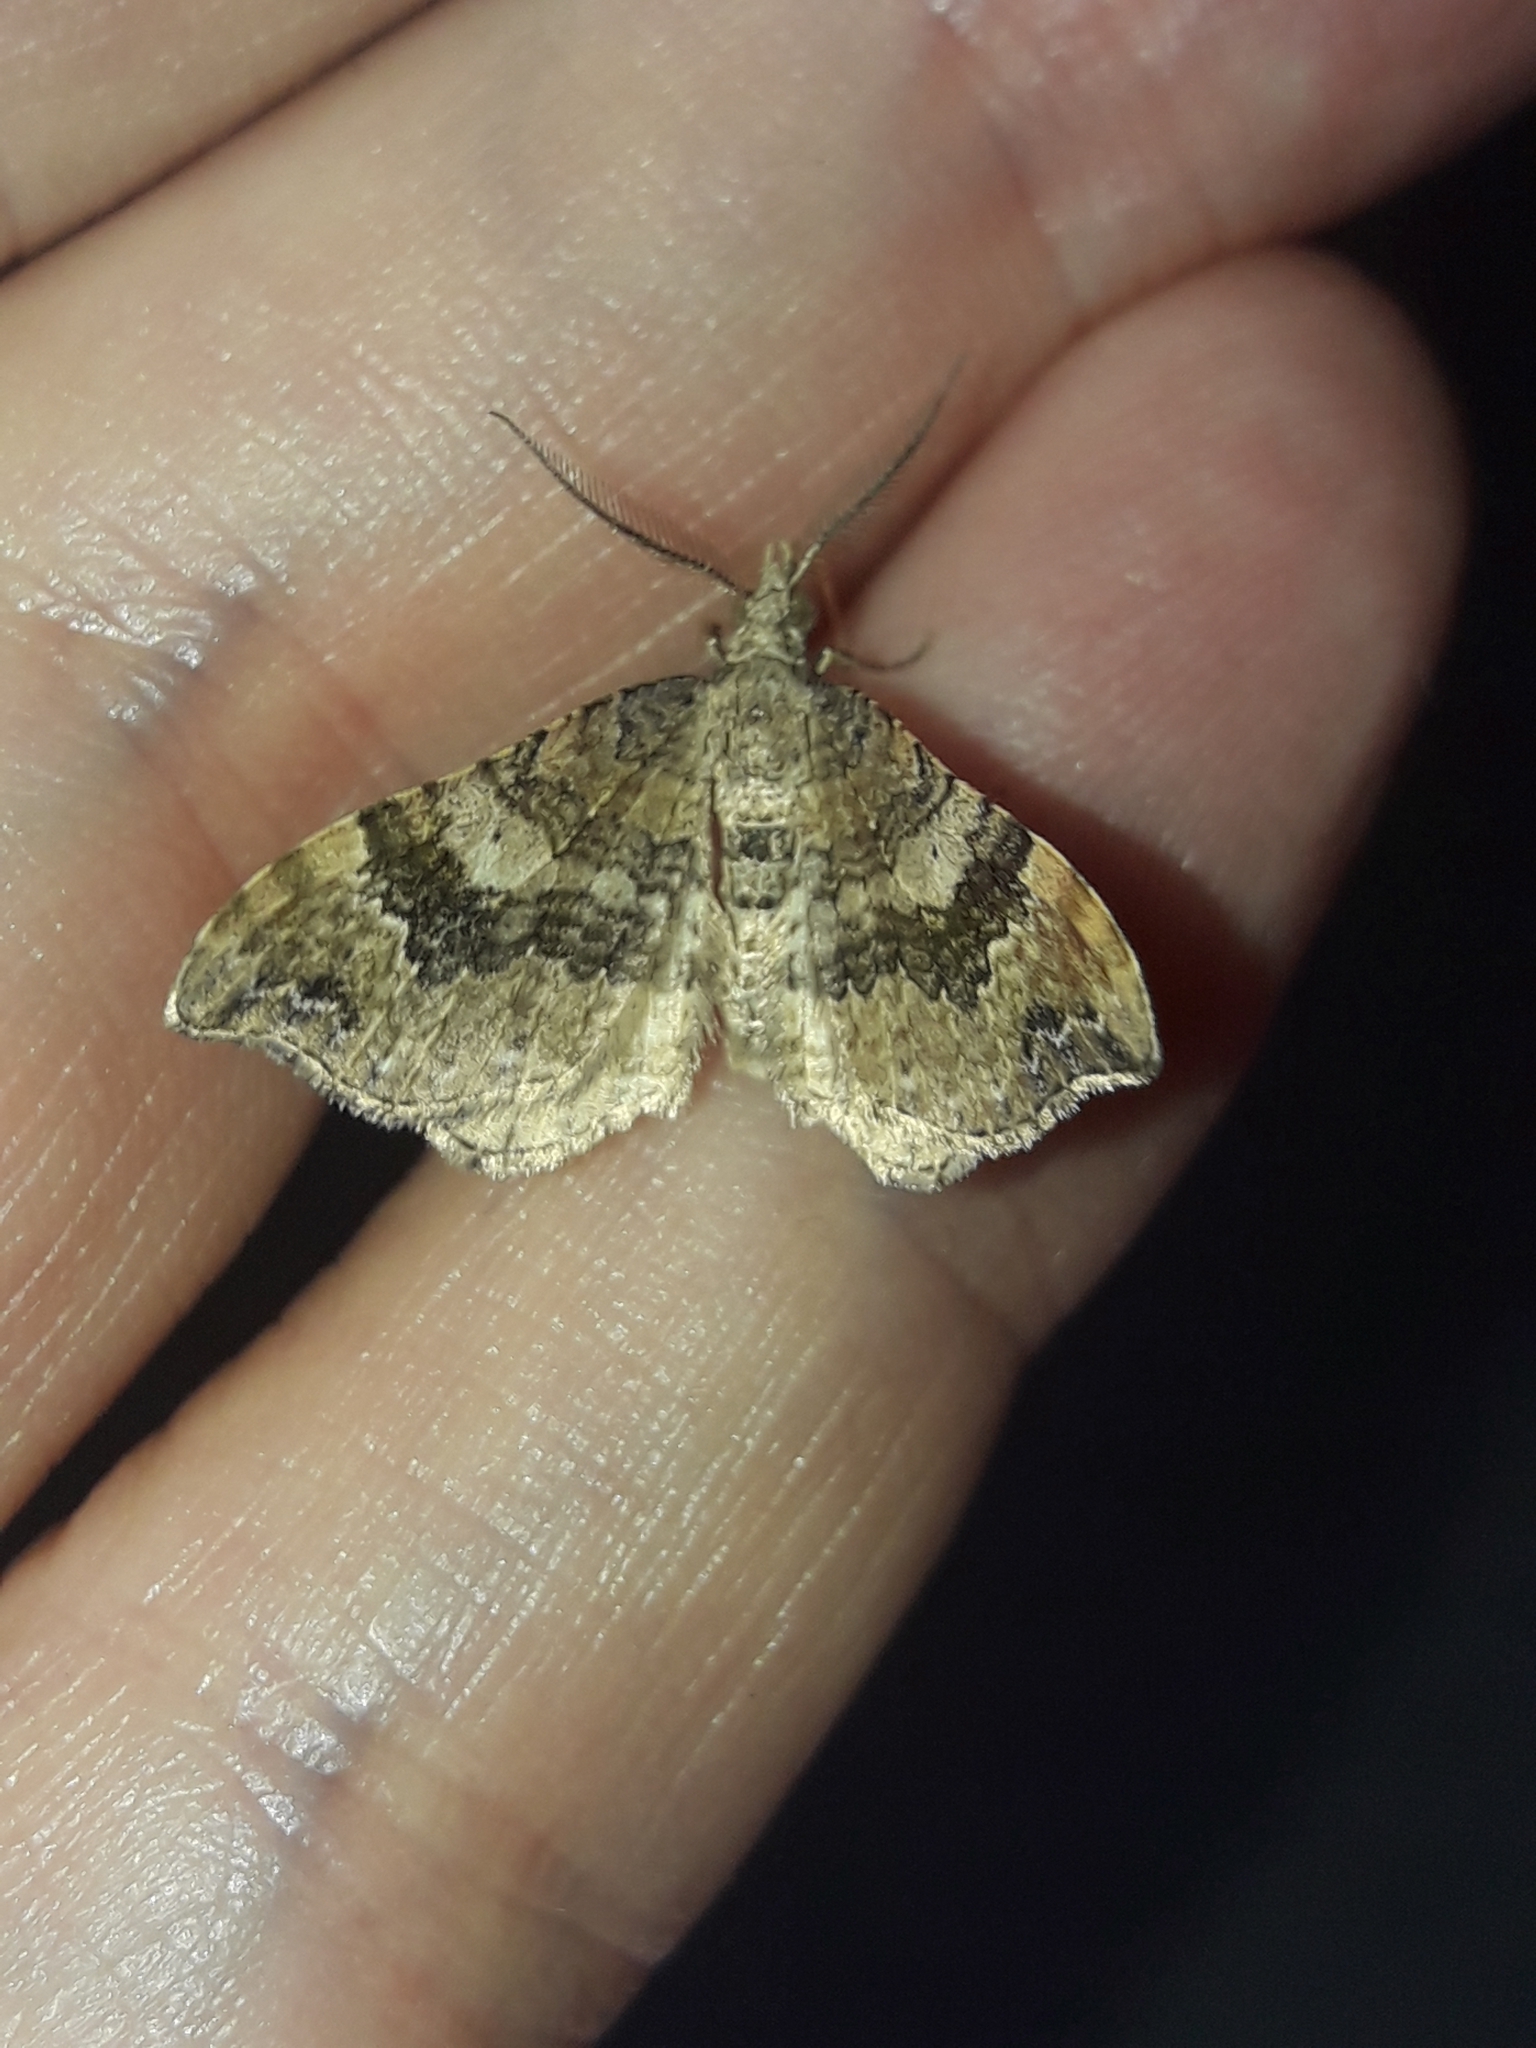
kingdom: Animalia
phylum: Arthropoda
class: Insecta
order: Lepidoptera
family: Geometridae
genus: Homodotis
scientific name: Homodotis megaspilata
